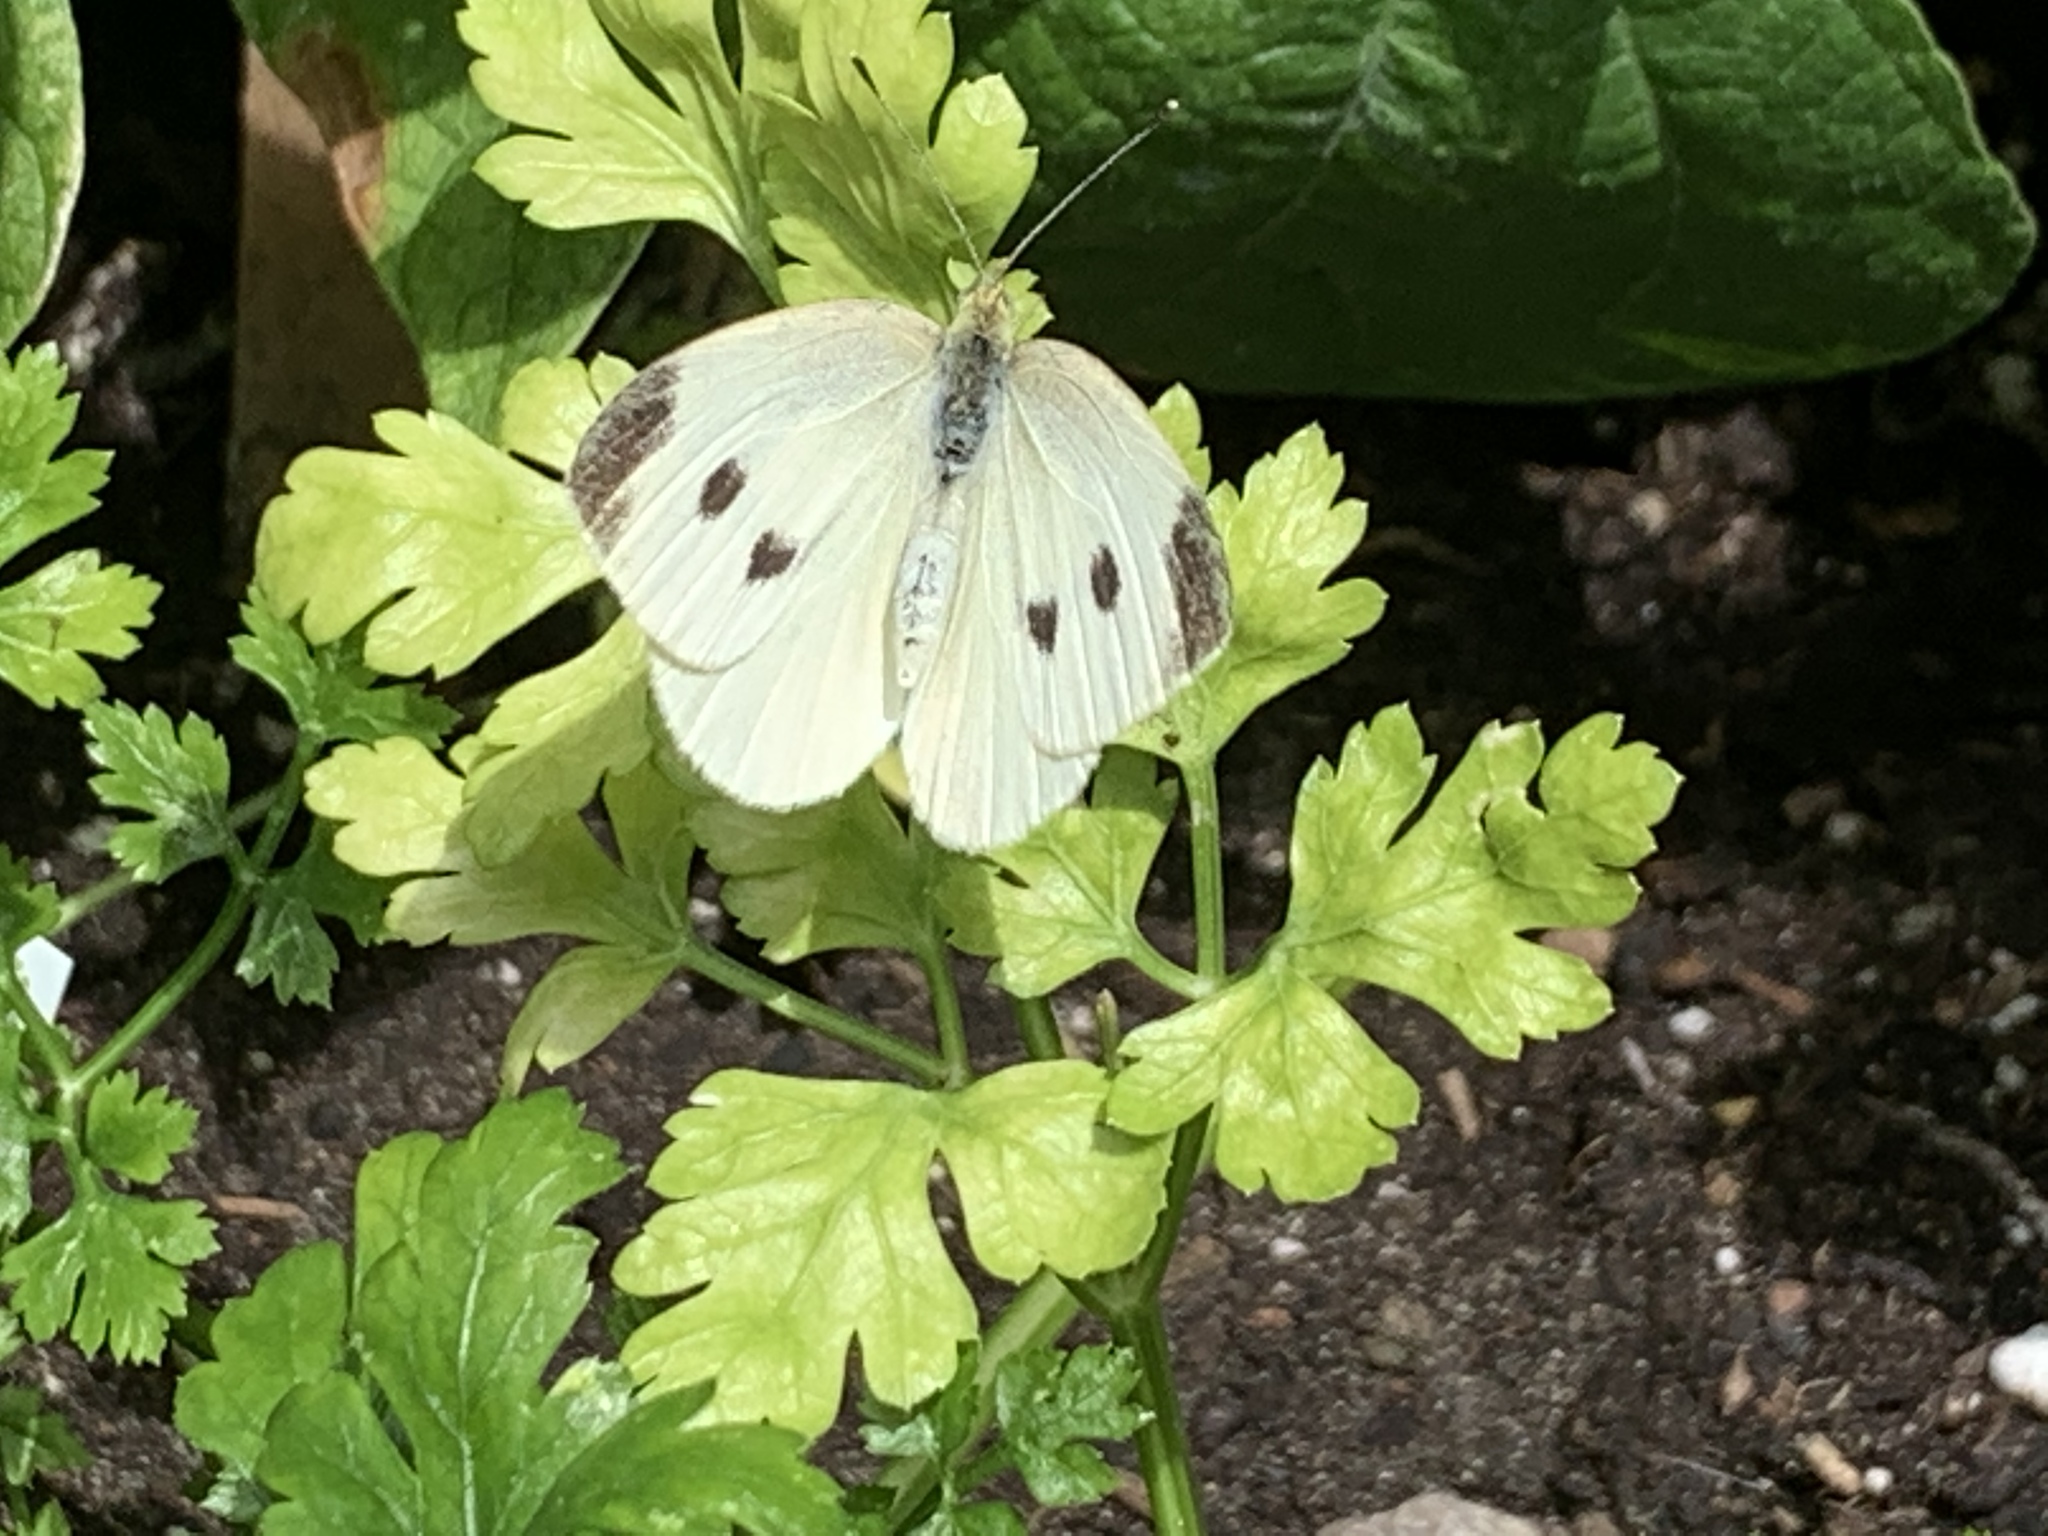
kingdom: Animalia
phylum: Arthropoda
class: Insecta
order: Lepidoptera
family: Pieridae
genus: Pieris
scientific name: Pieris rapae
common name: Small white
